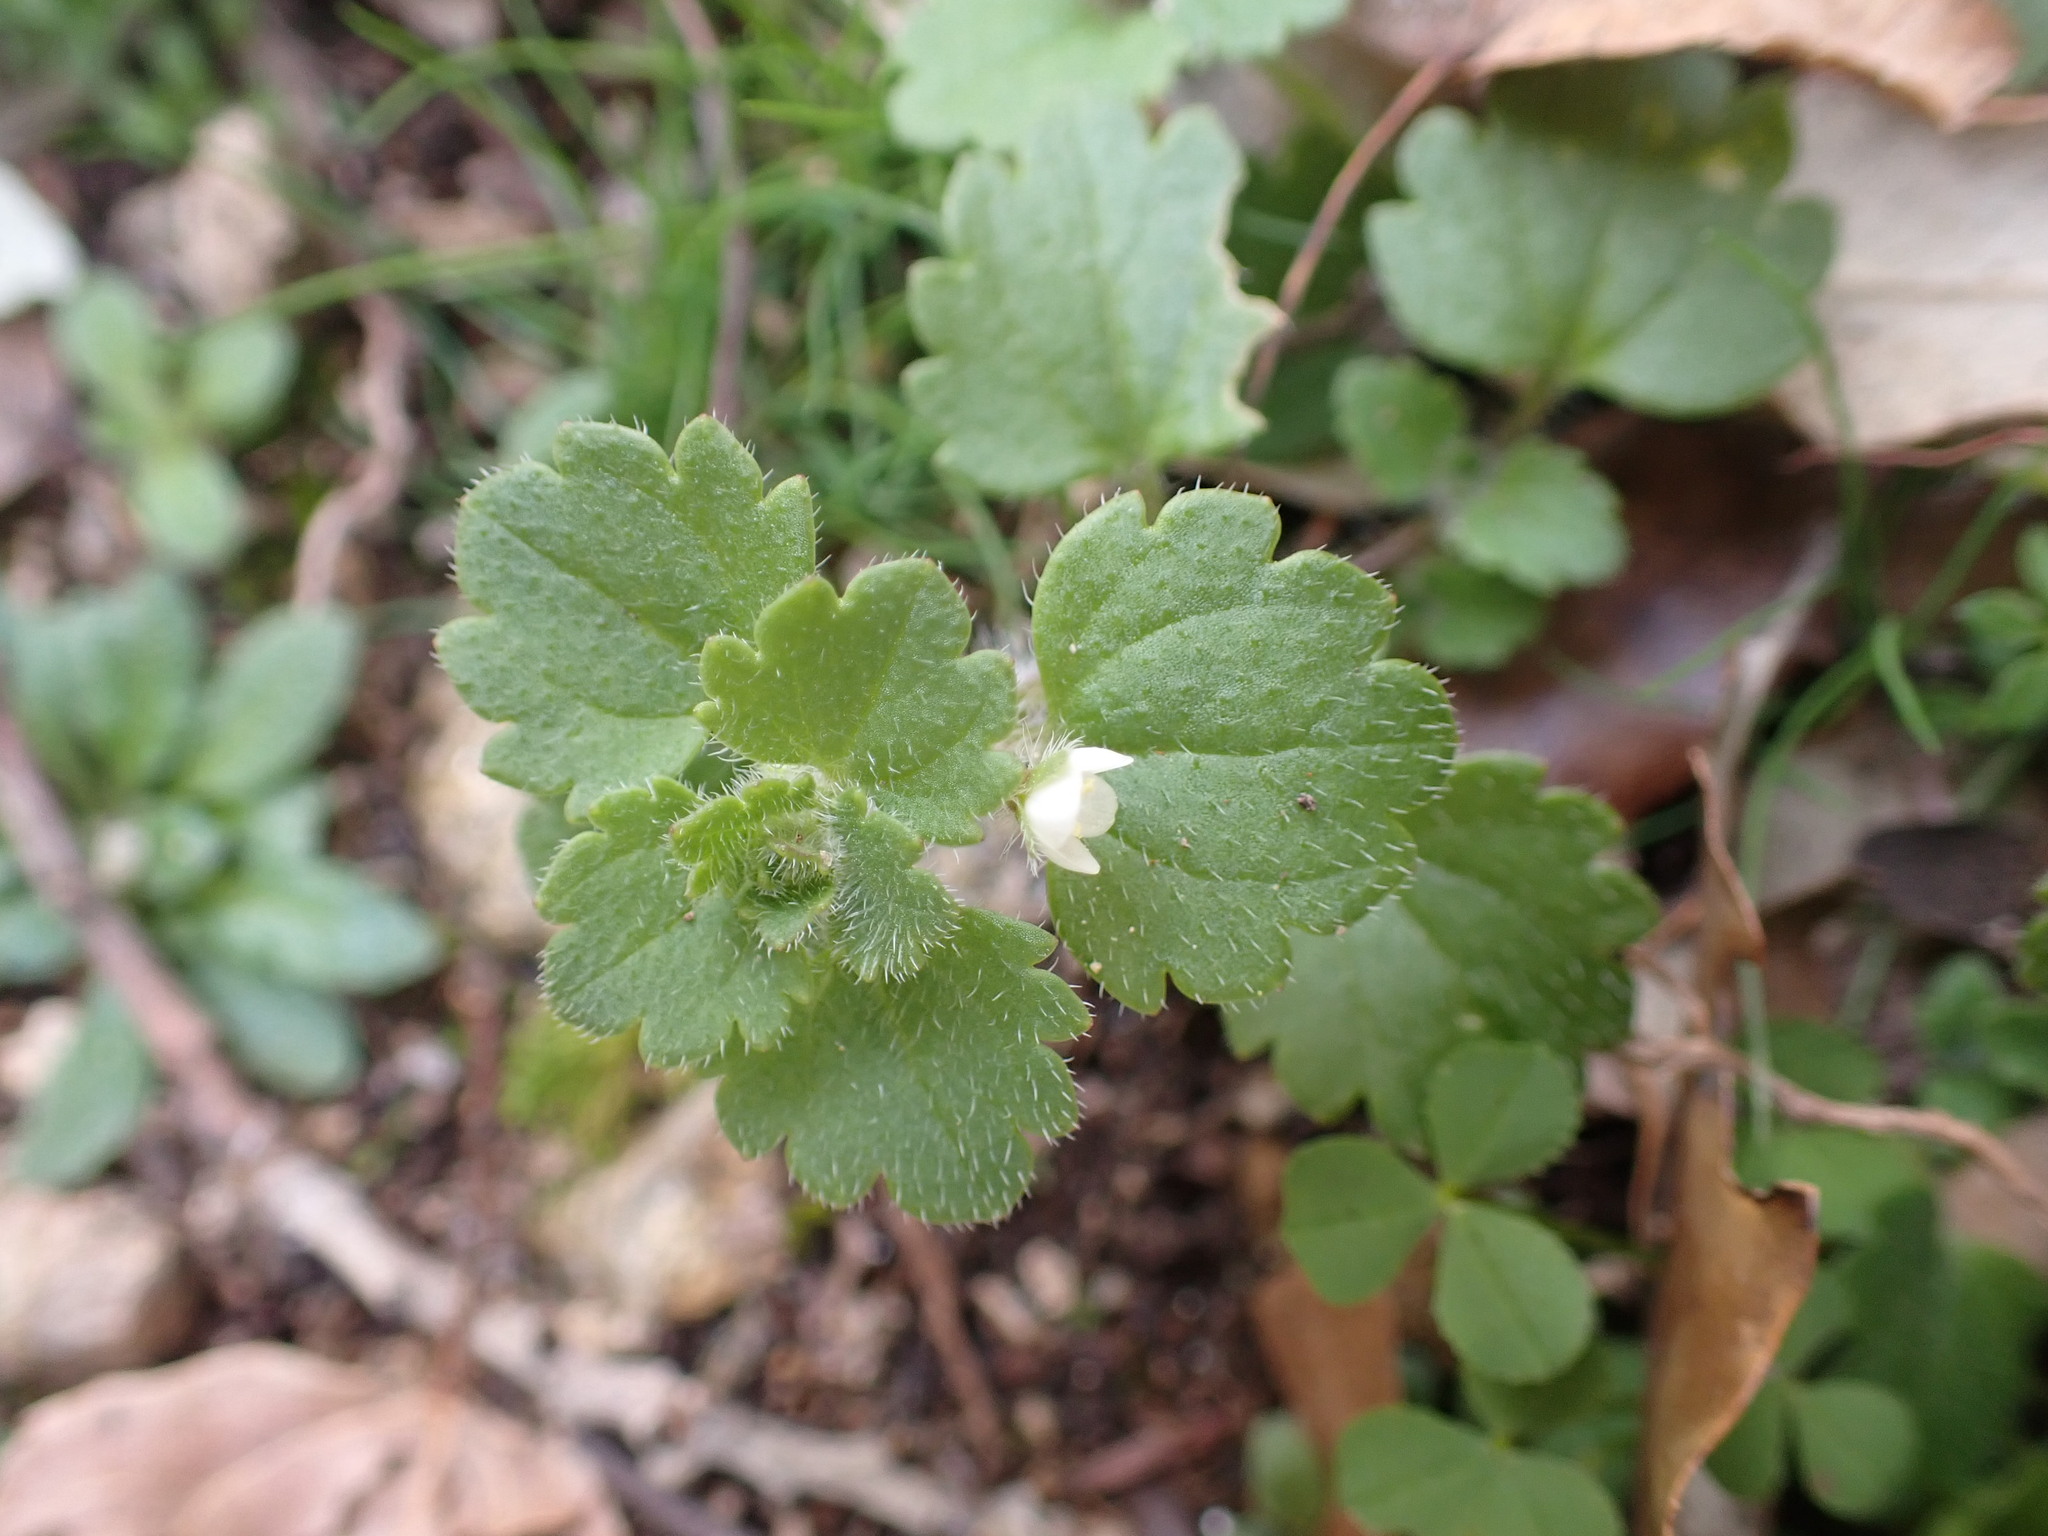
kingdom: Plantae
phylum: Tracheophyta
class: Magnoliopsida
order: Lamiales
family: Plantaginaceae
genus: Veronica
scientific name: Veronica cymbalaria
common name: Pale speedwell
